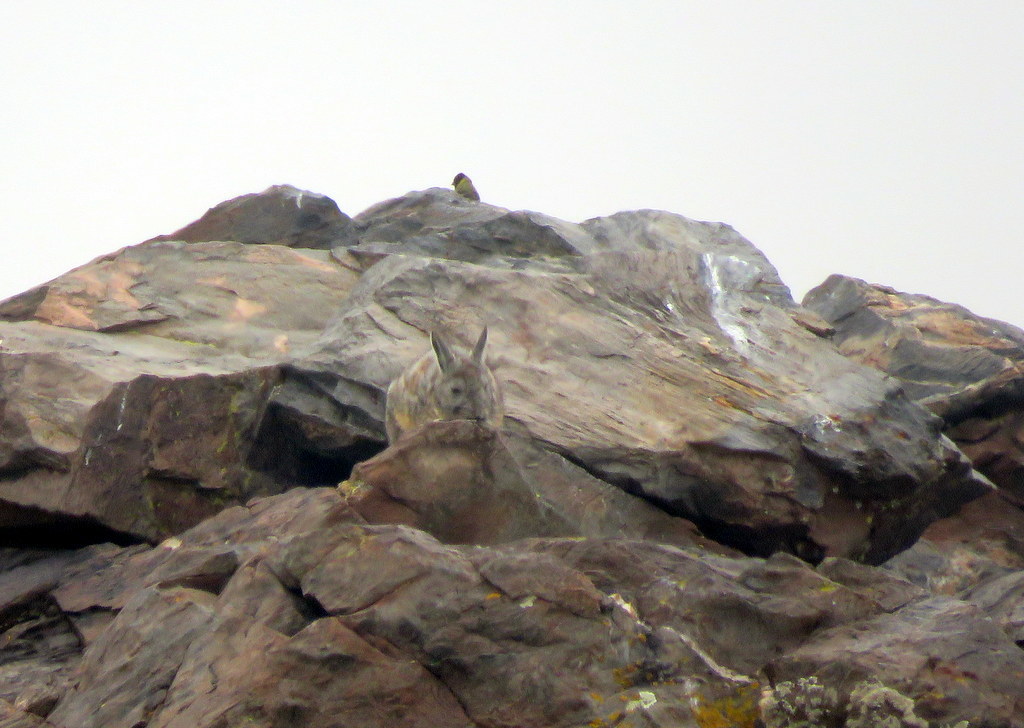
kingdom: Animalia
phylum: Chordata
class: Aves
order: Passeriformes
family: Fringillidae
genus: Spinus
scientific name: Spinus crassirostris
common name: Thick-billed siskin
